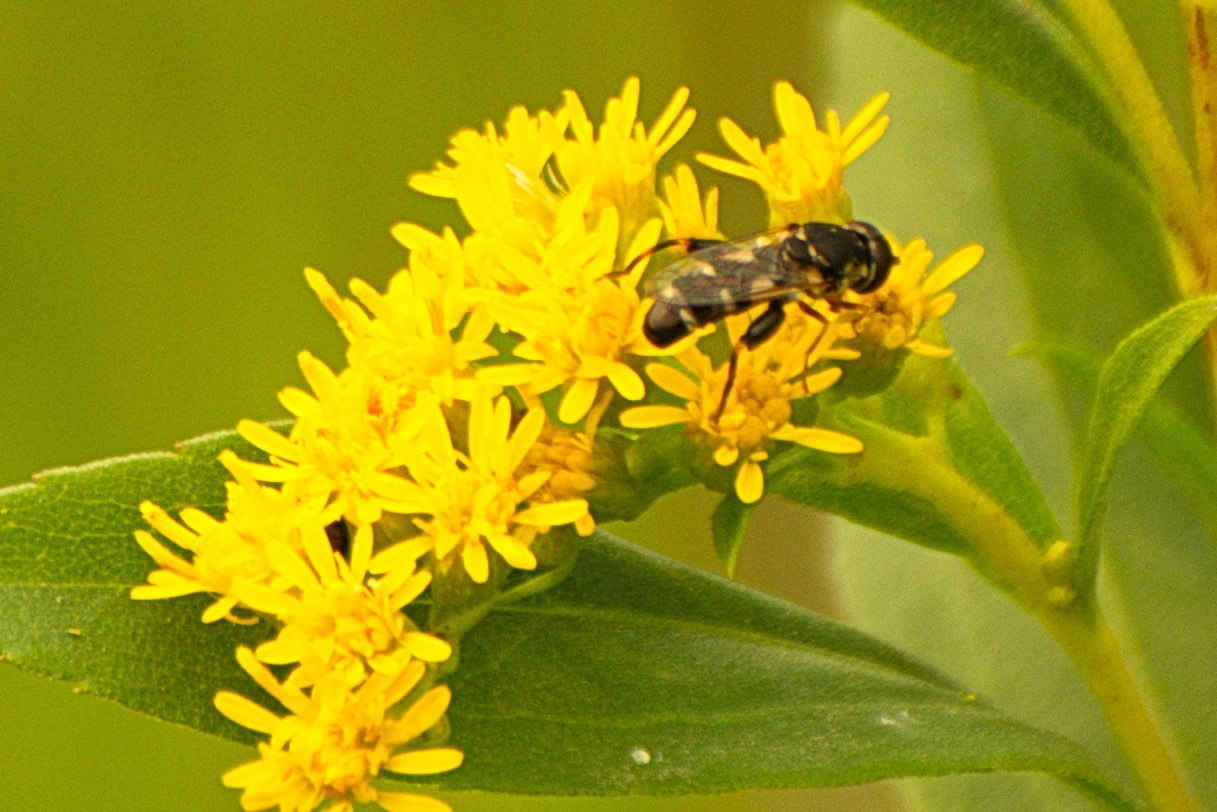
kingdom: Animalia
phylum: Arthropoda
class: Insecta
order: Diptera
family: Syrphidae
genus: Syritta
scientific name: Syritta pipiens
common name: Hover fly
